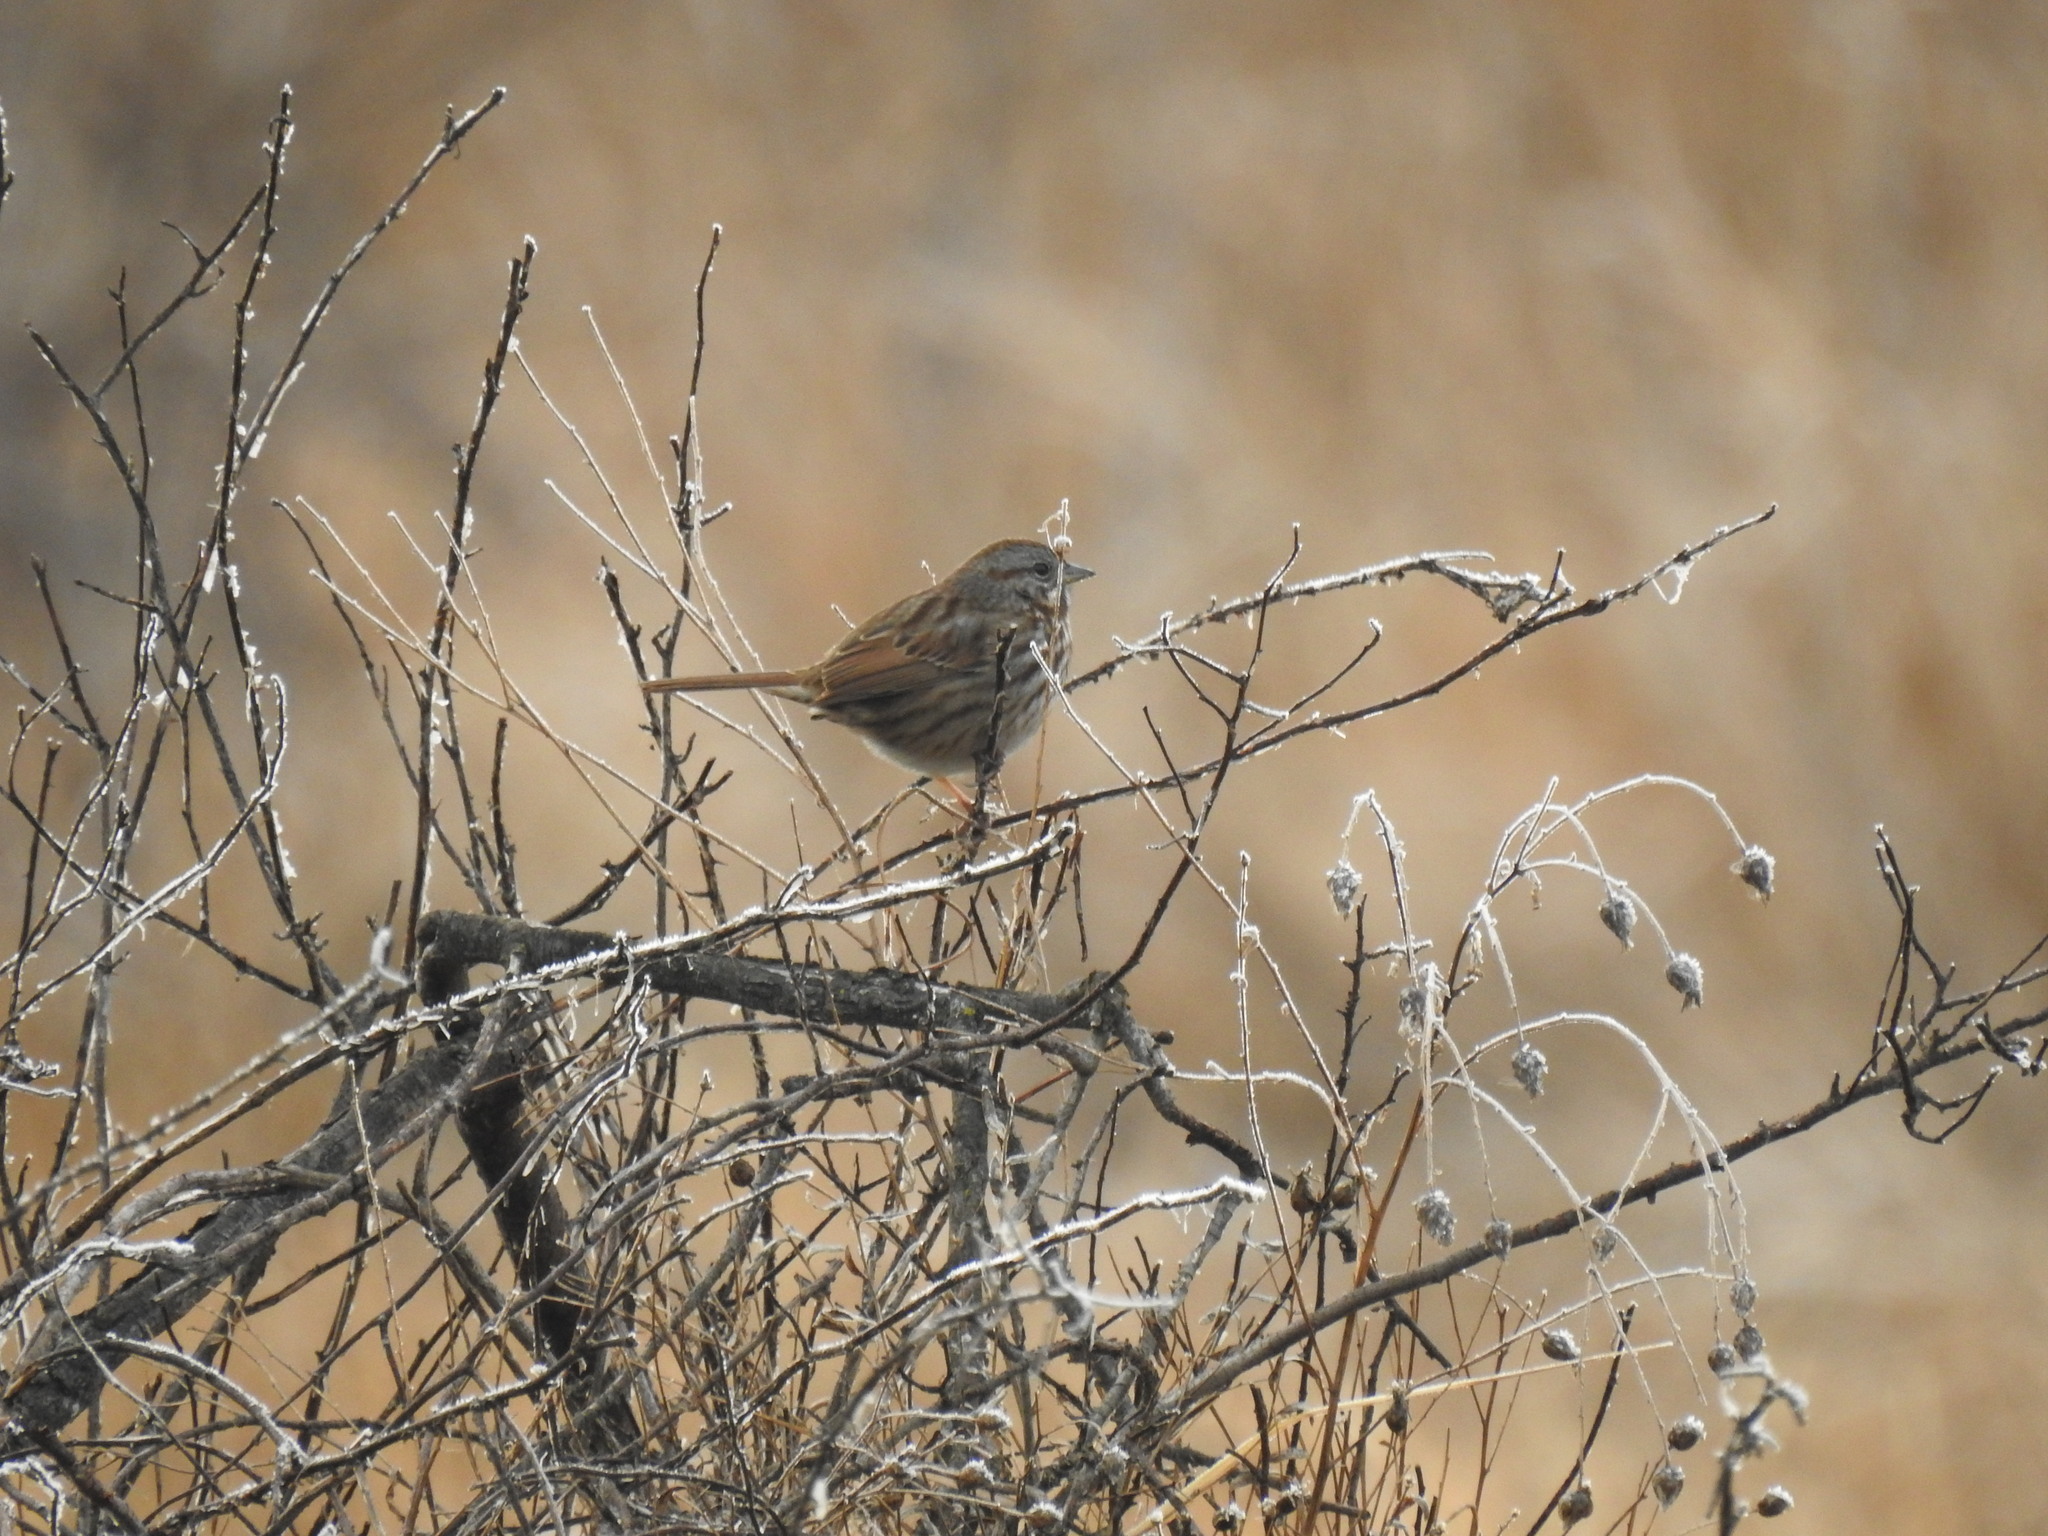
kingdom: Animalia
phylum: Chordata
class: Aves
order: Passeriformes
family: Passerellidae
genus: Melospiza
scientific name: Melospiza melodia
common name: Song sparrow
